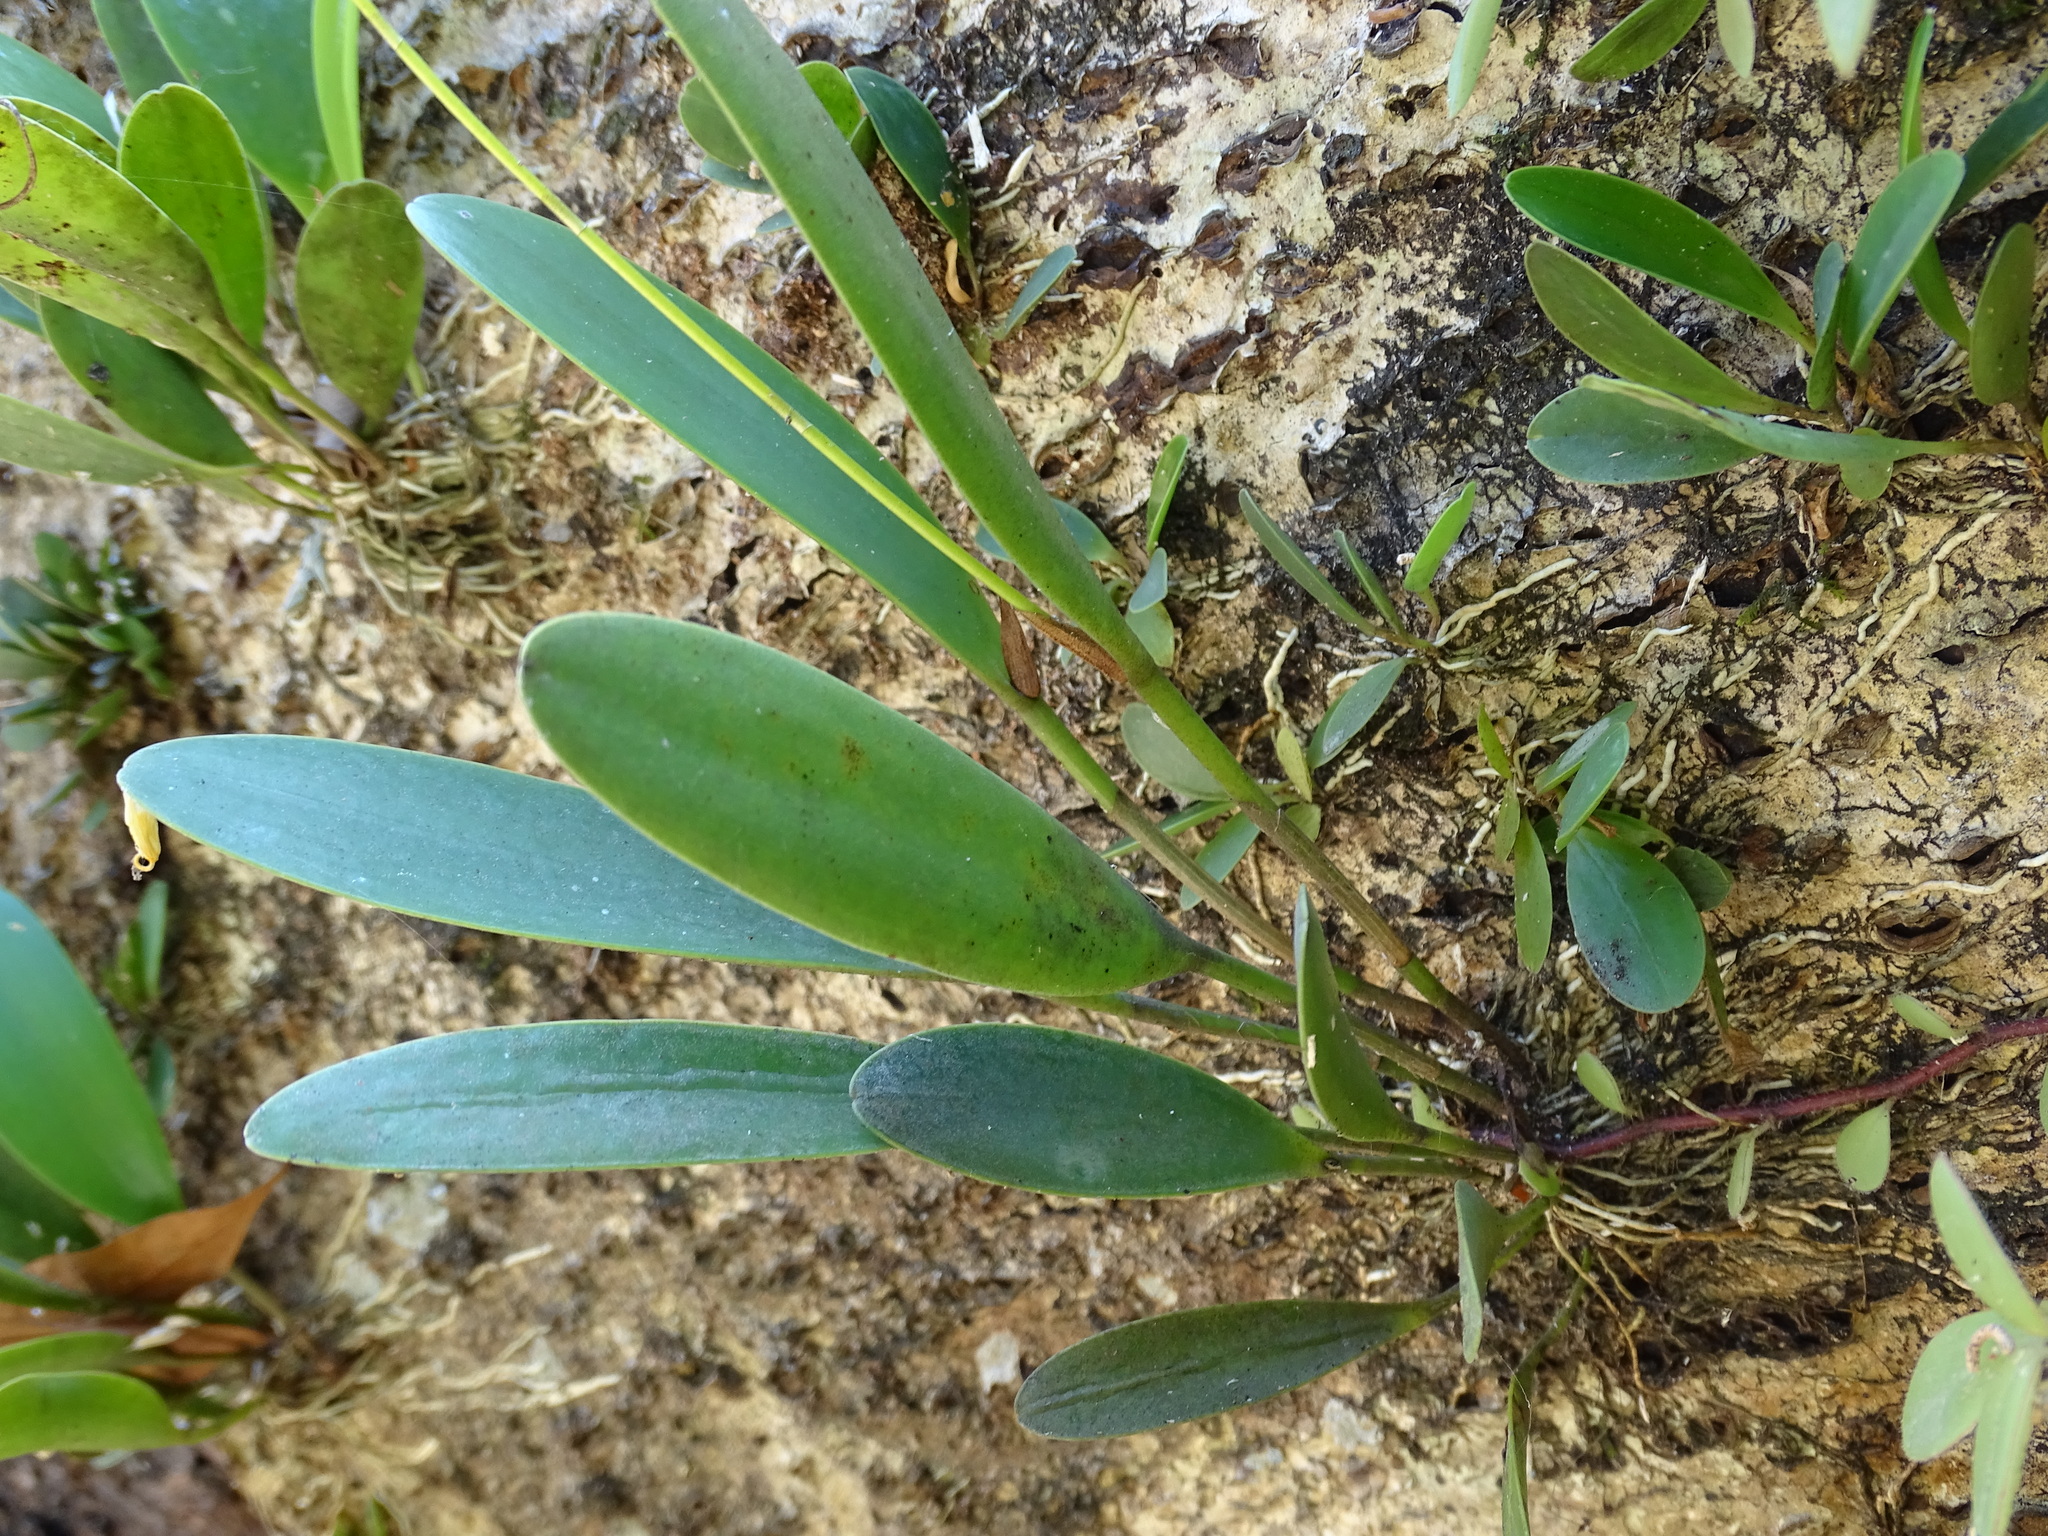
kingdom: Plantae
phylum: Tracheophyta
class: Liliopsida
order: Asparagales
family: Orchidaceae
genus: Pleurothallis
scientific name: Pleurothallis quadrifida
